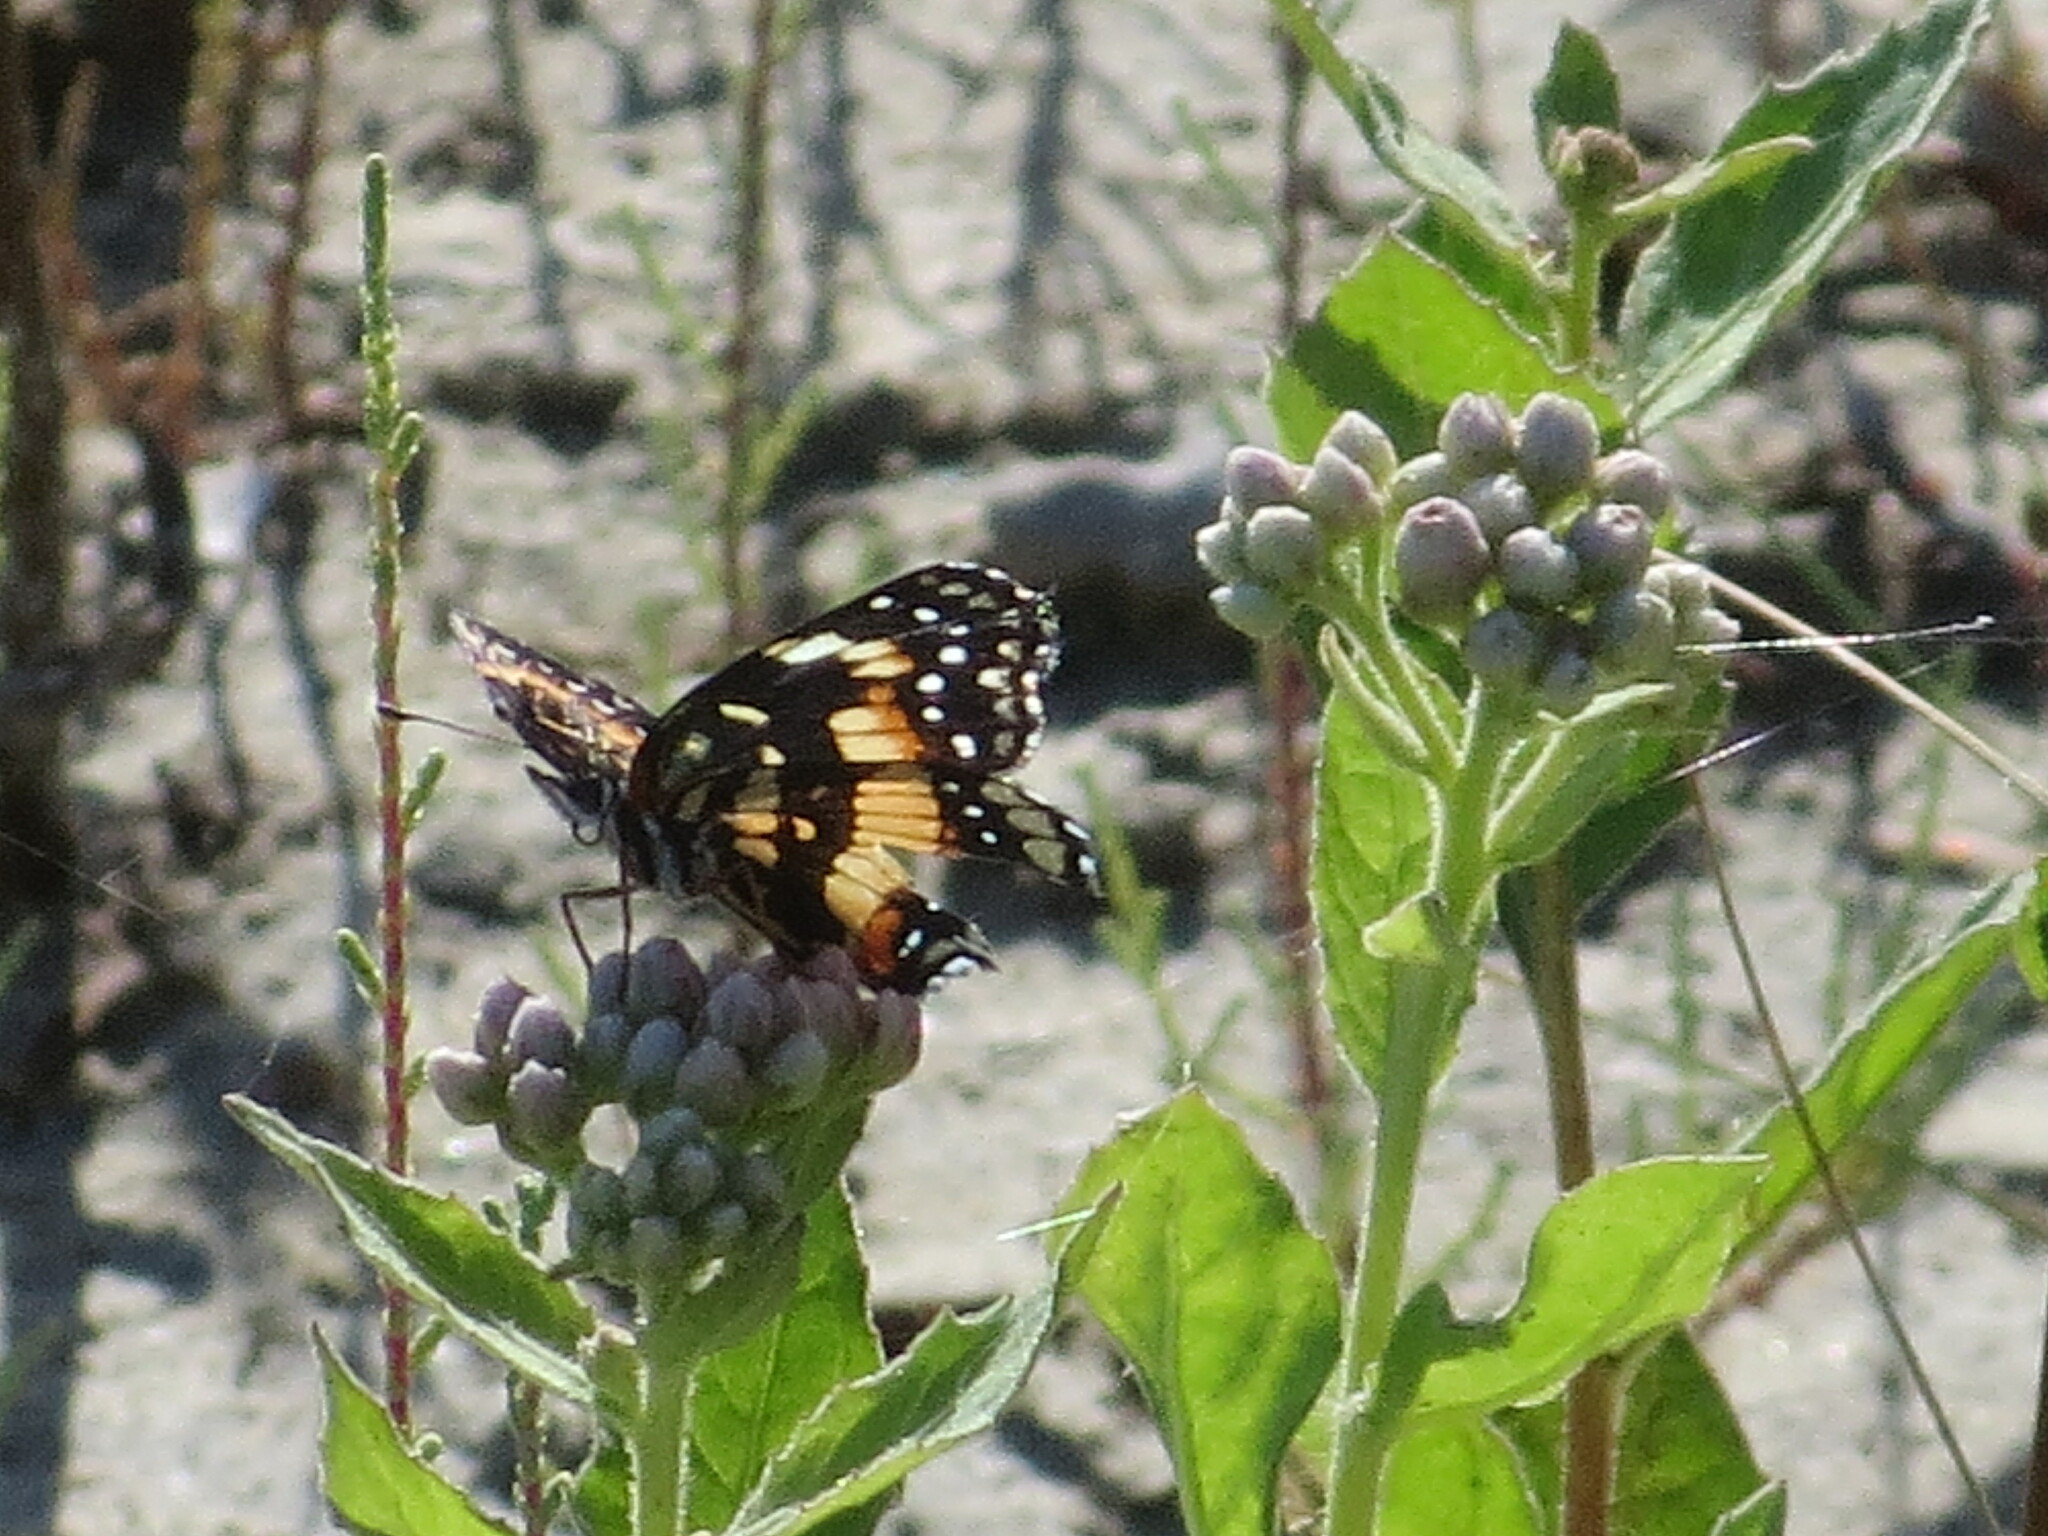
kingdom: Animalia
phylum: Arthropoda
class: Insecta
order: Lepidoptera
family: Nymphalidae
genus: Chlosyne
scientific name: Chlosyne lacinia
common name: Bordered patch
